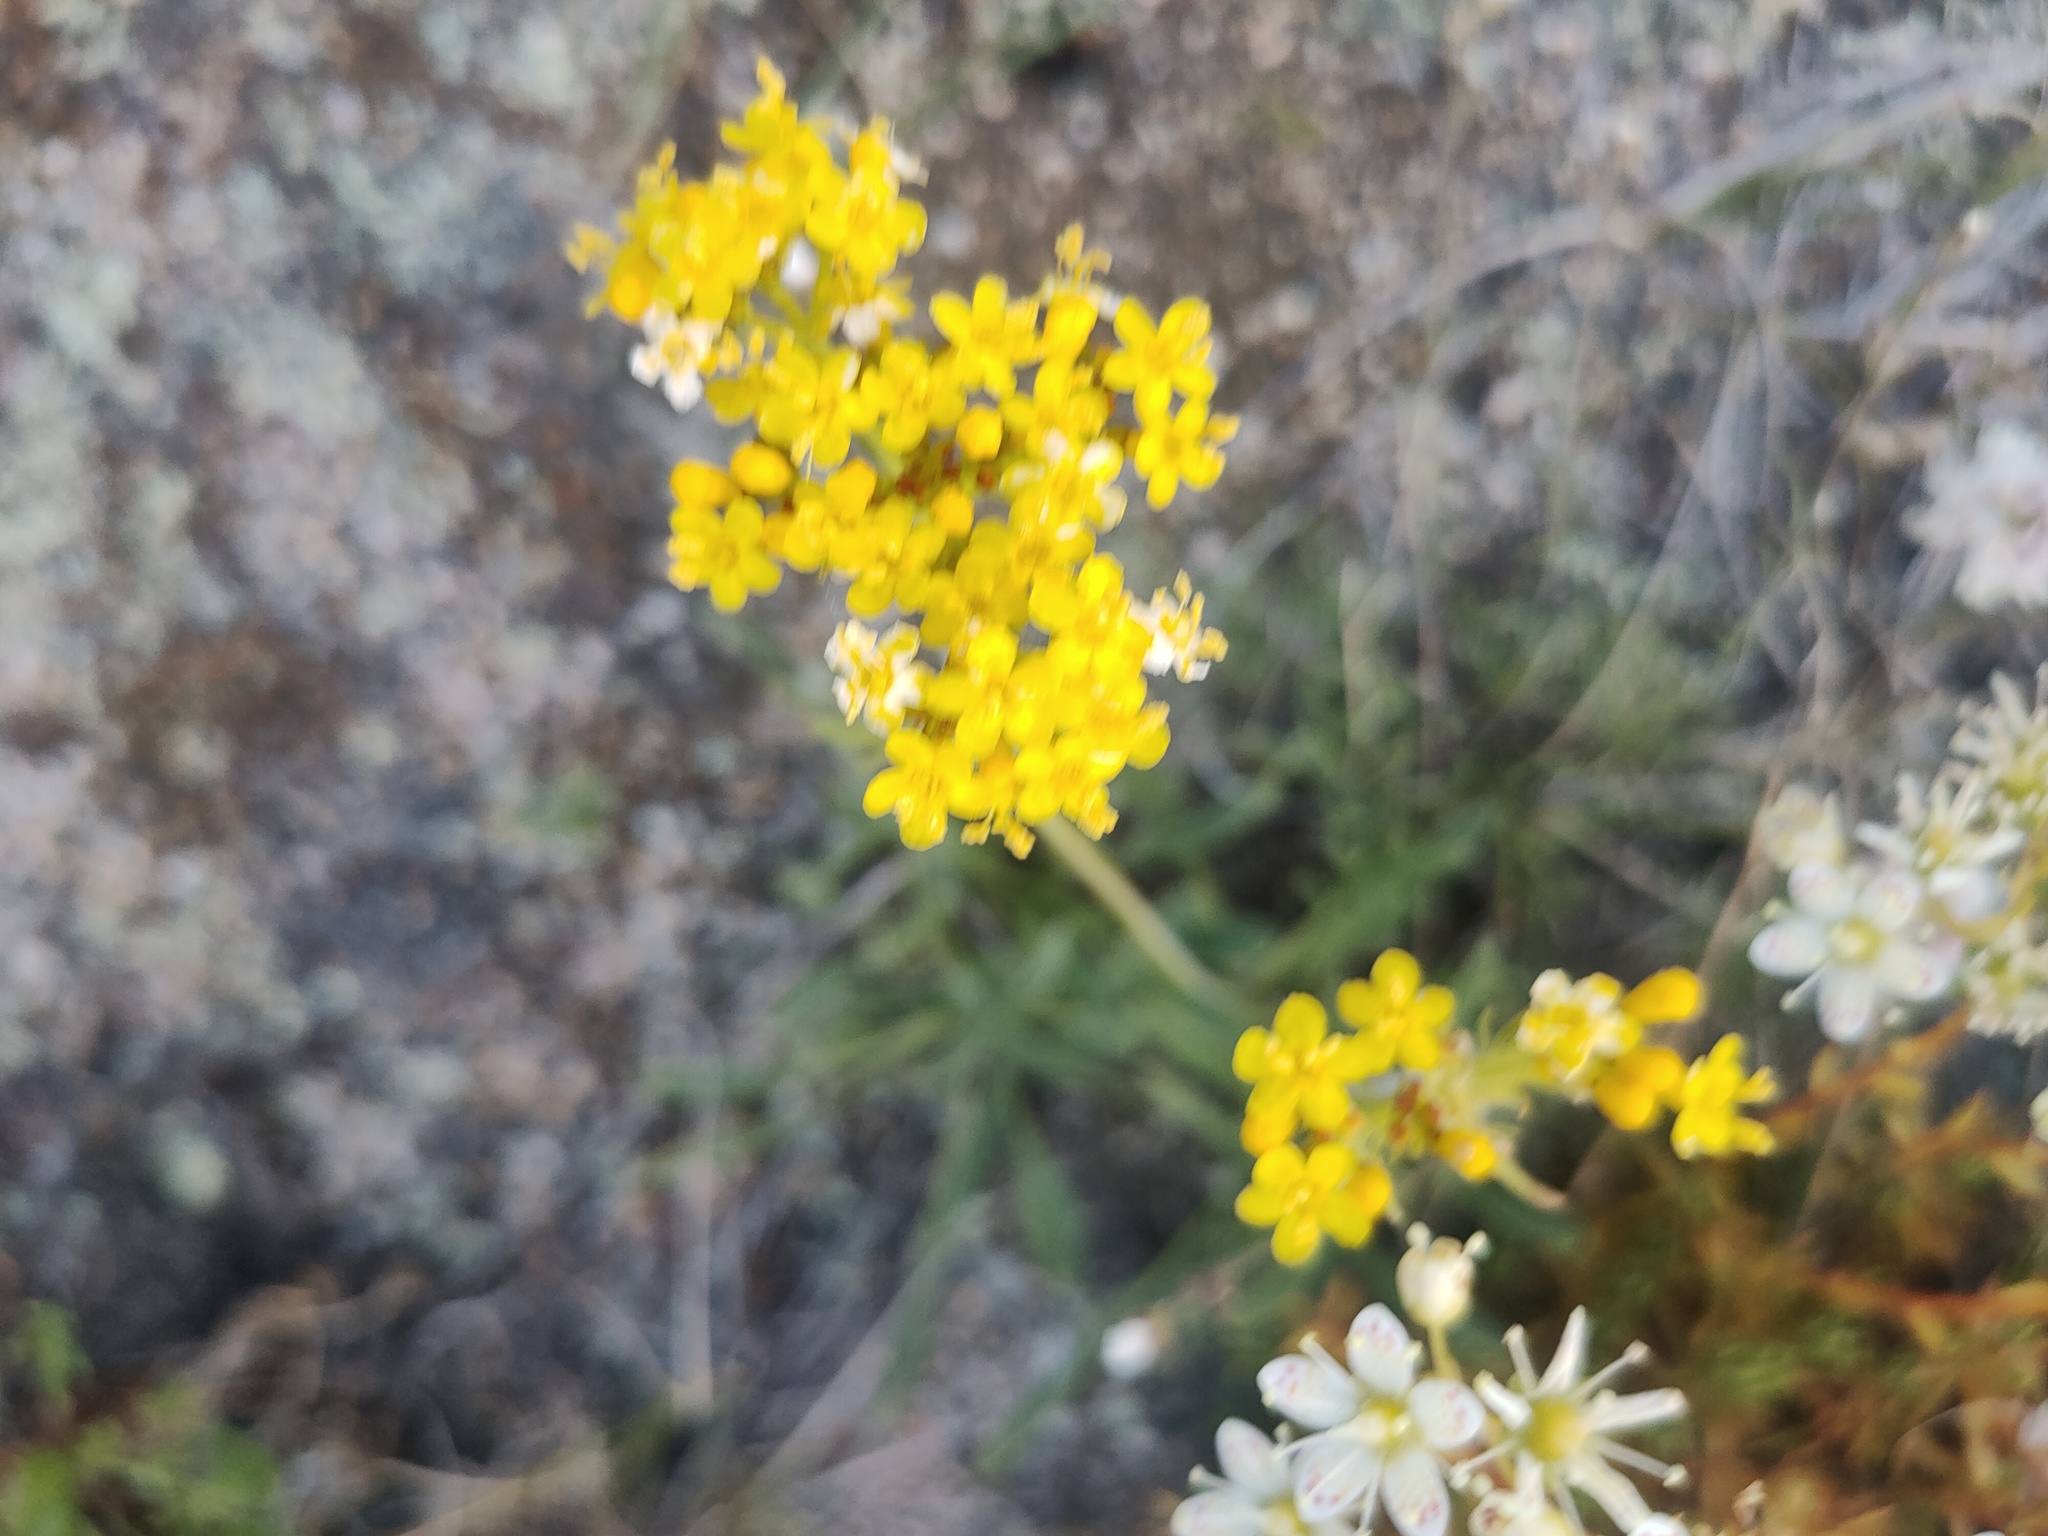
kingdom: Plantae
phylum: Tracheophyta
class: Magnoliopsida
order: Dipsacales
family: Caprifoliaceae
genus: Patrinia
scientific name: Patrinia sibirica
